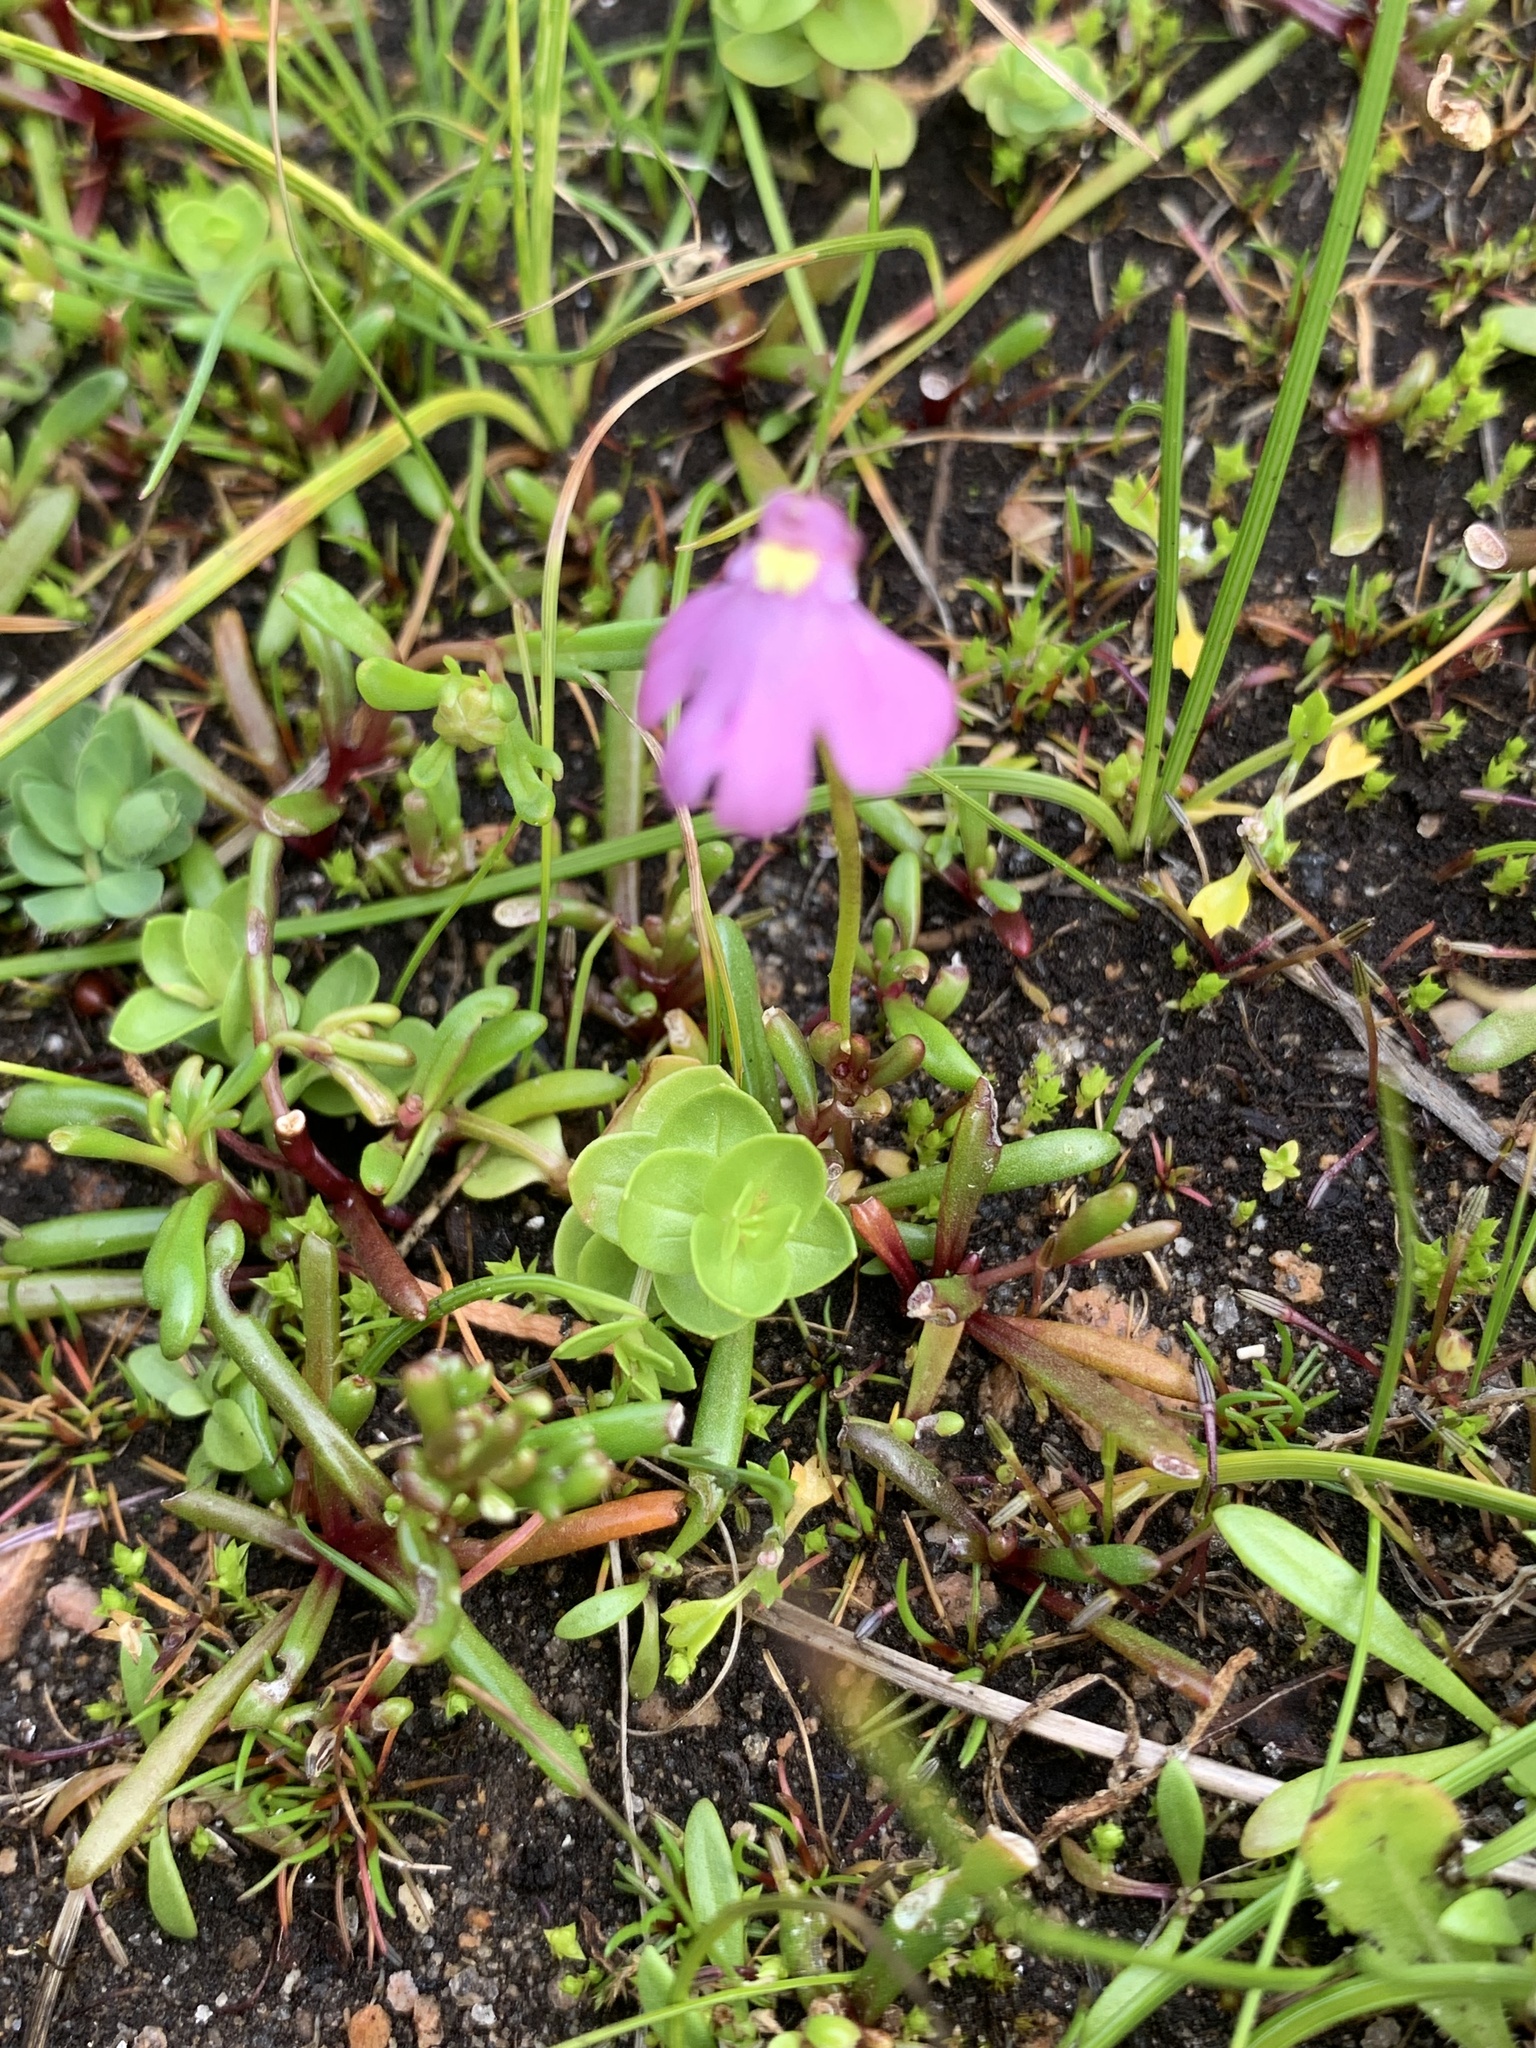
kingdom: Plantae
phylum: Tracheophyta
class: Magnoliopsida
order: Lamiales
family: Lentibulariaceae
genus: Utricularia
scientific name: Utricularia multifida
